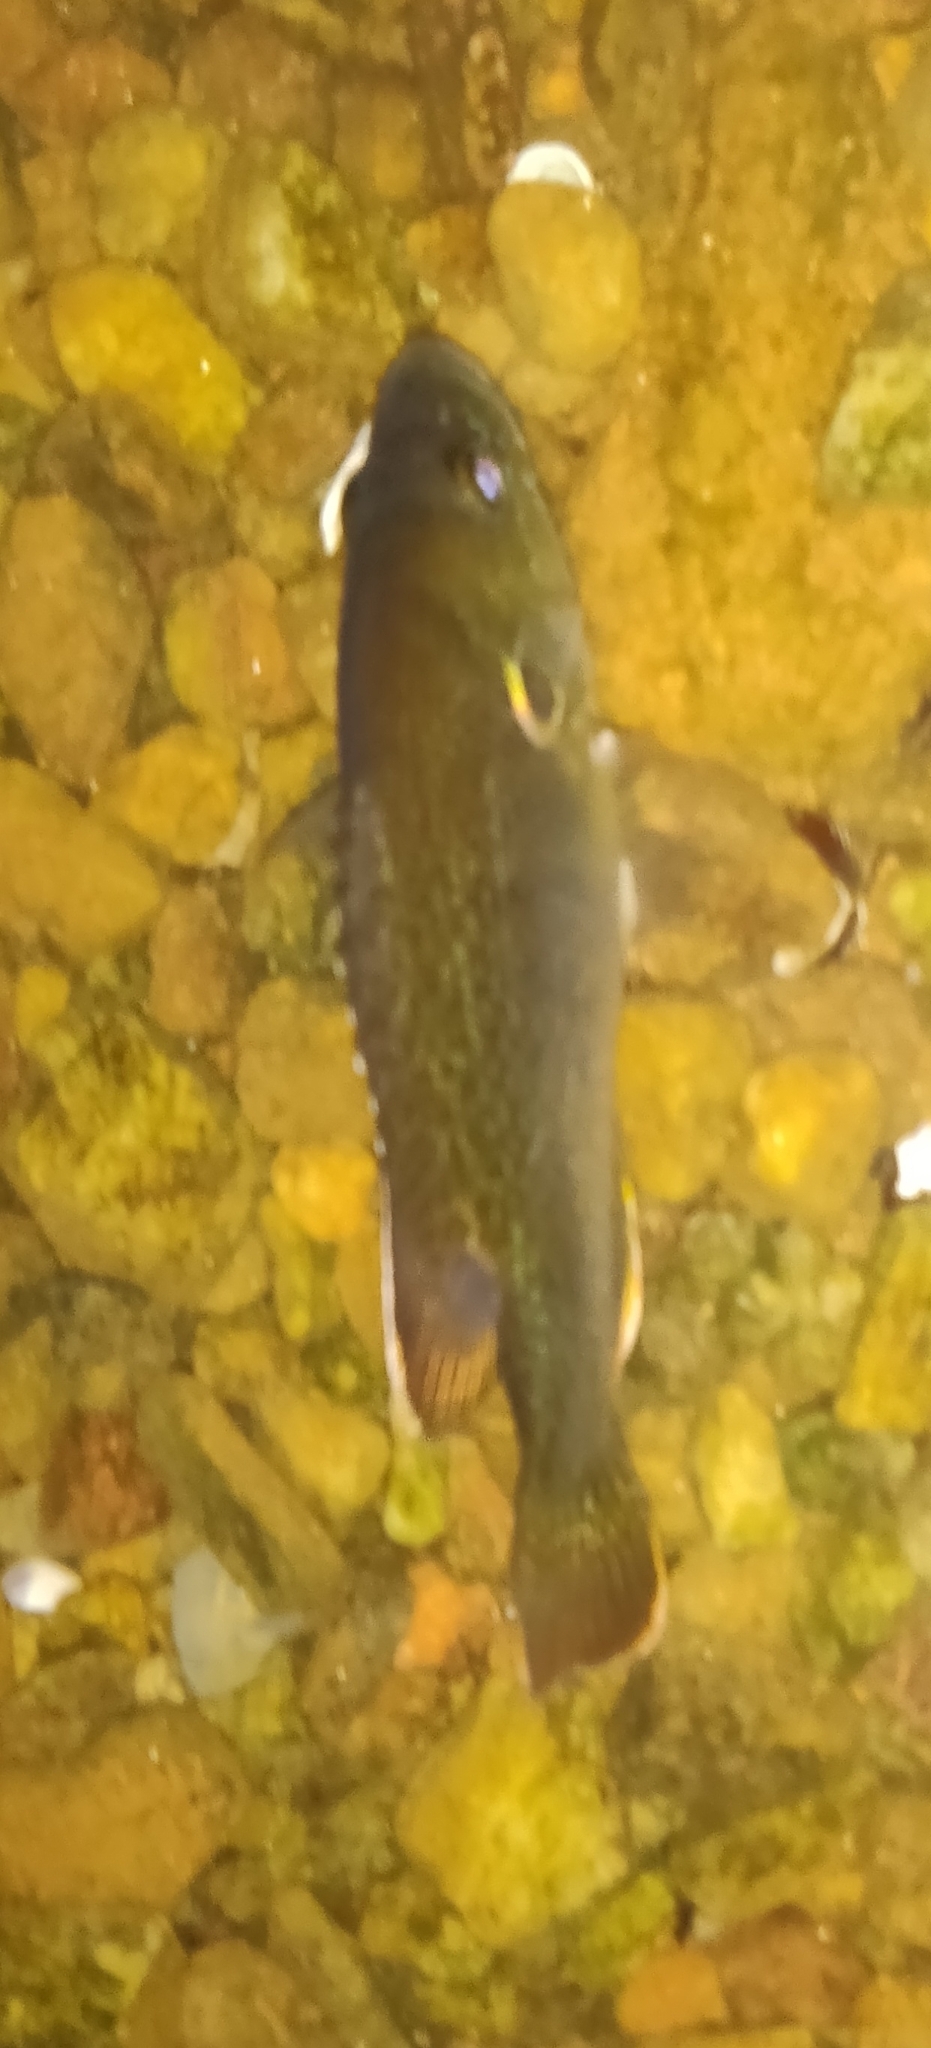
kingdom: Animalia
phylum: Chordata
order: Perciformes
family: Centrarchidae
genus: Lepomis
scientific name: Lepomis cyanellus
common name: Green sunfish
